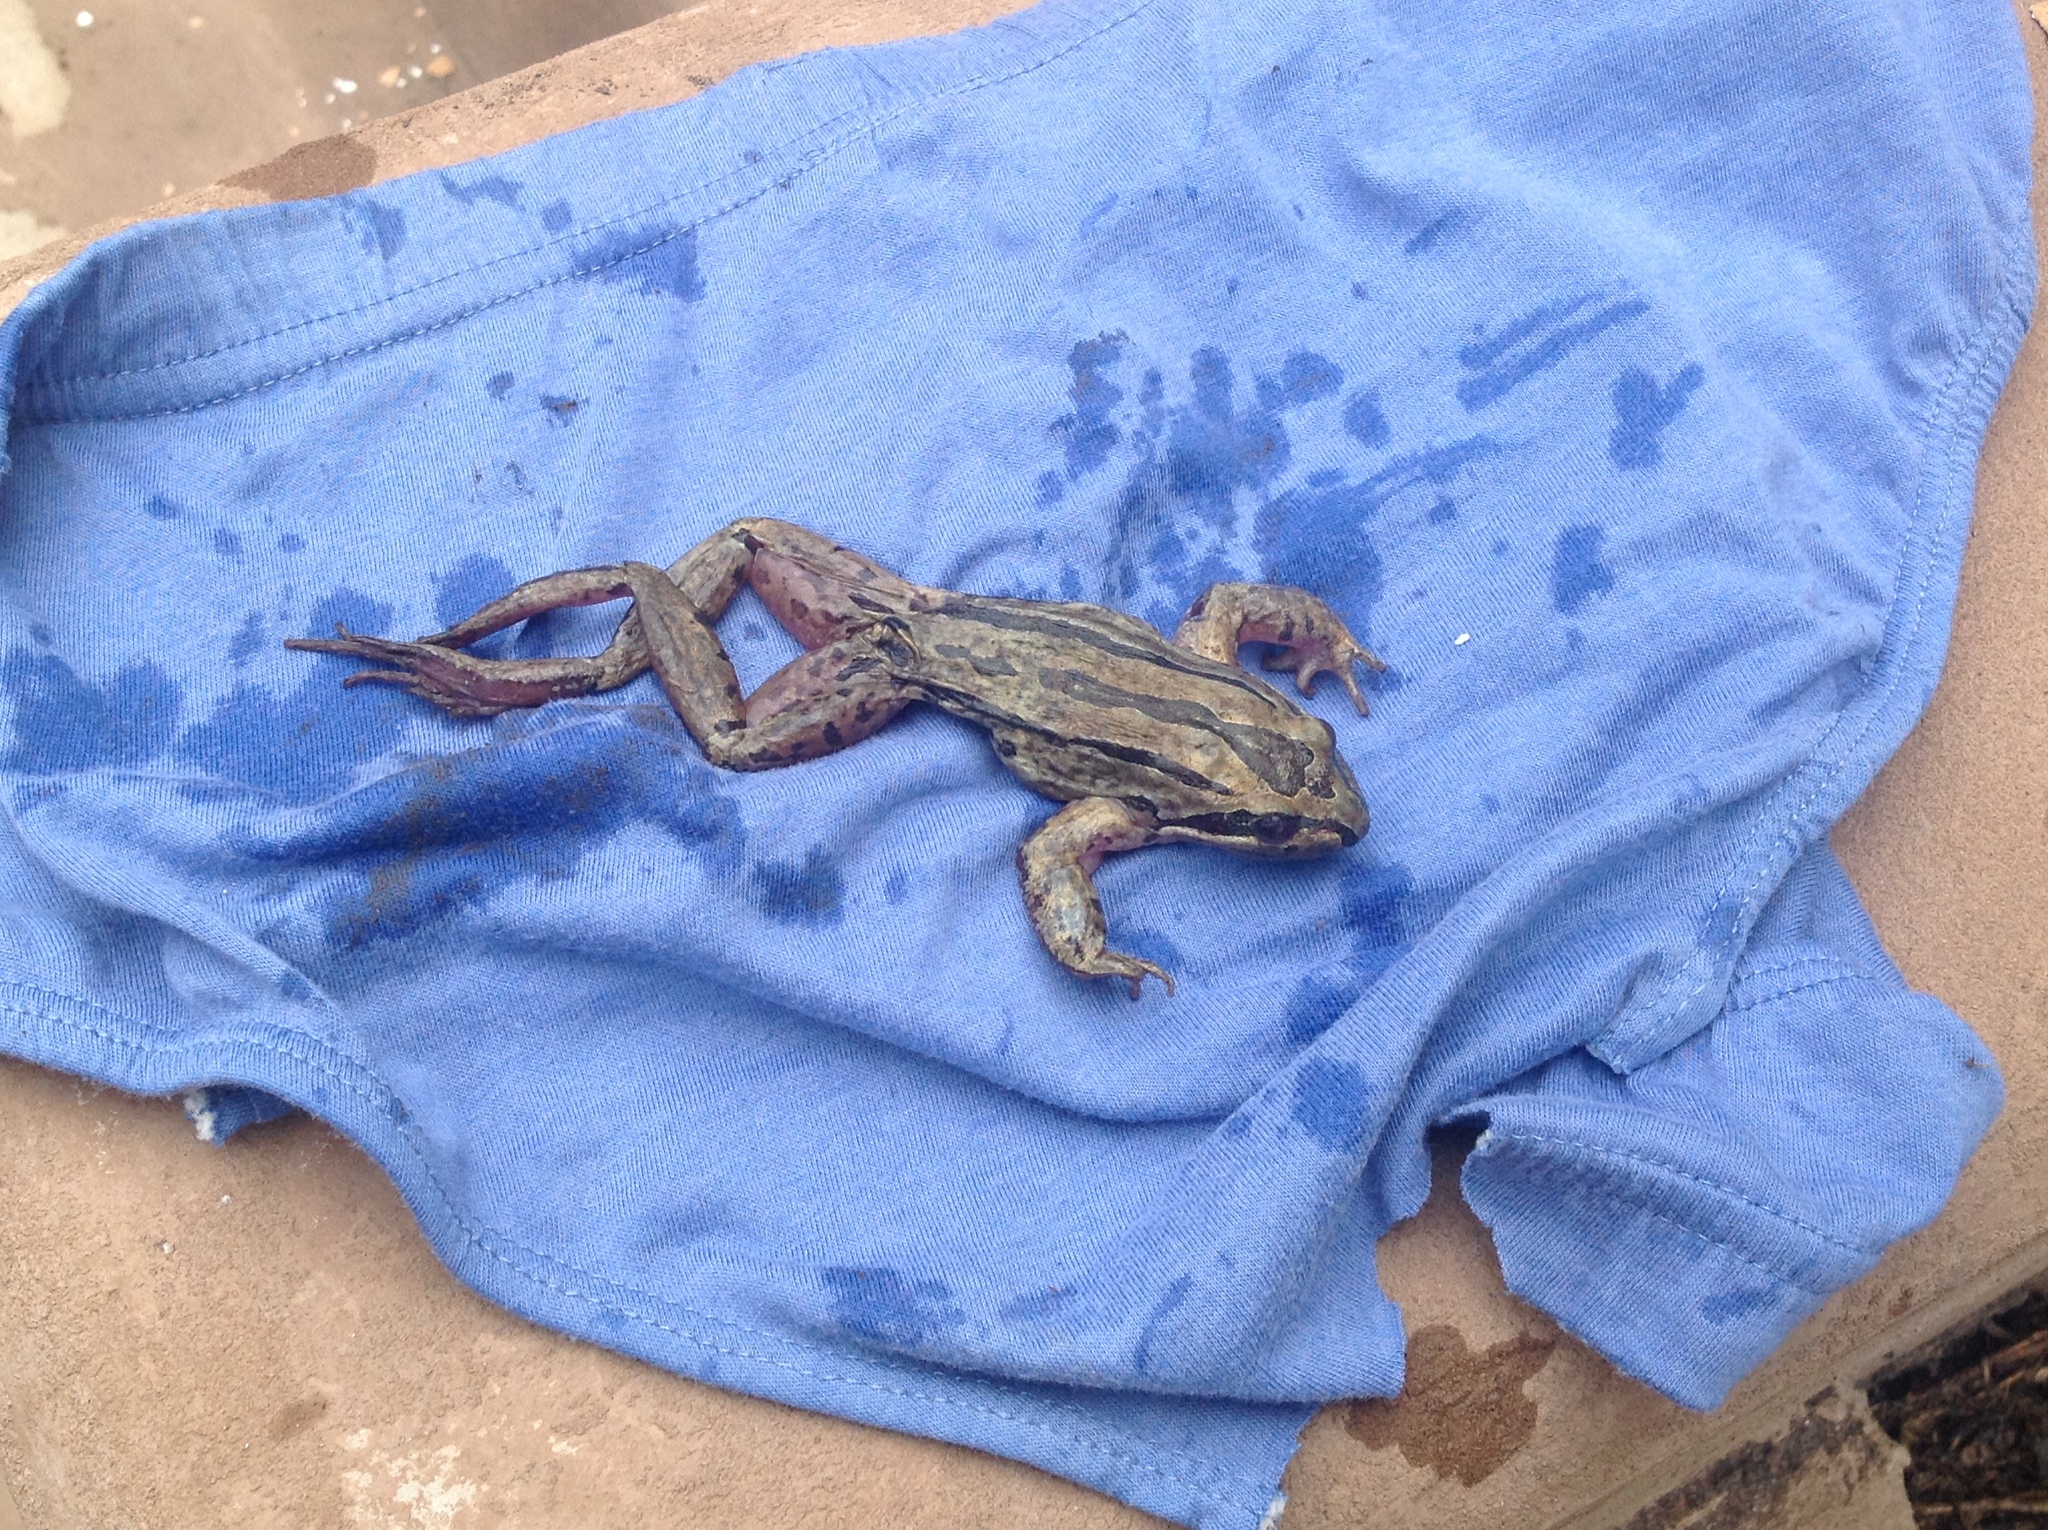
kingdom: Animalia
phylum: Chordata
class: Amphibia
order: Anura
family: Limnodynastidae
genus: Limnodynastes
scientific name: Limnodynastes peronii
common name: Brown frog
